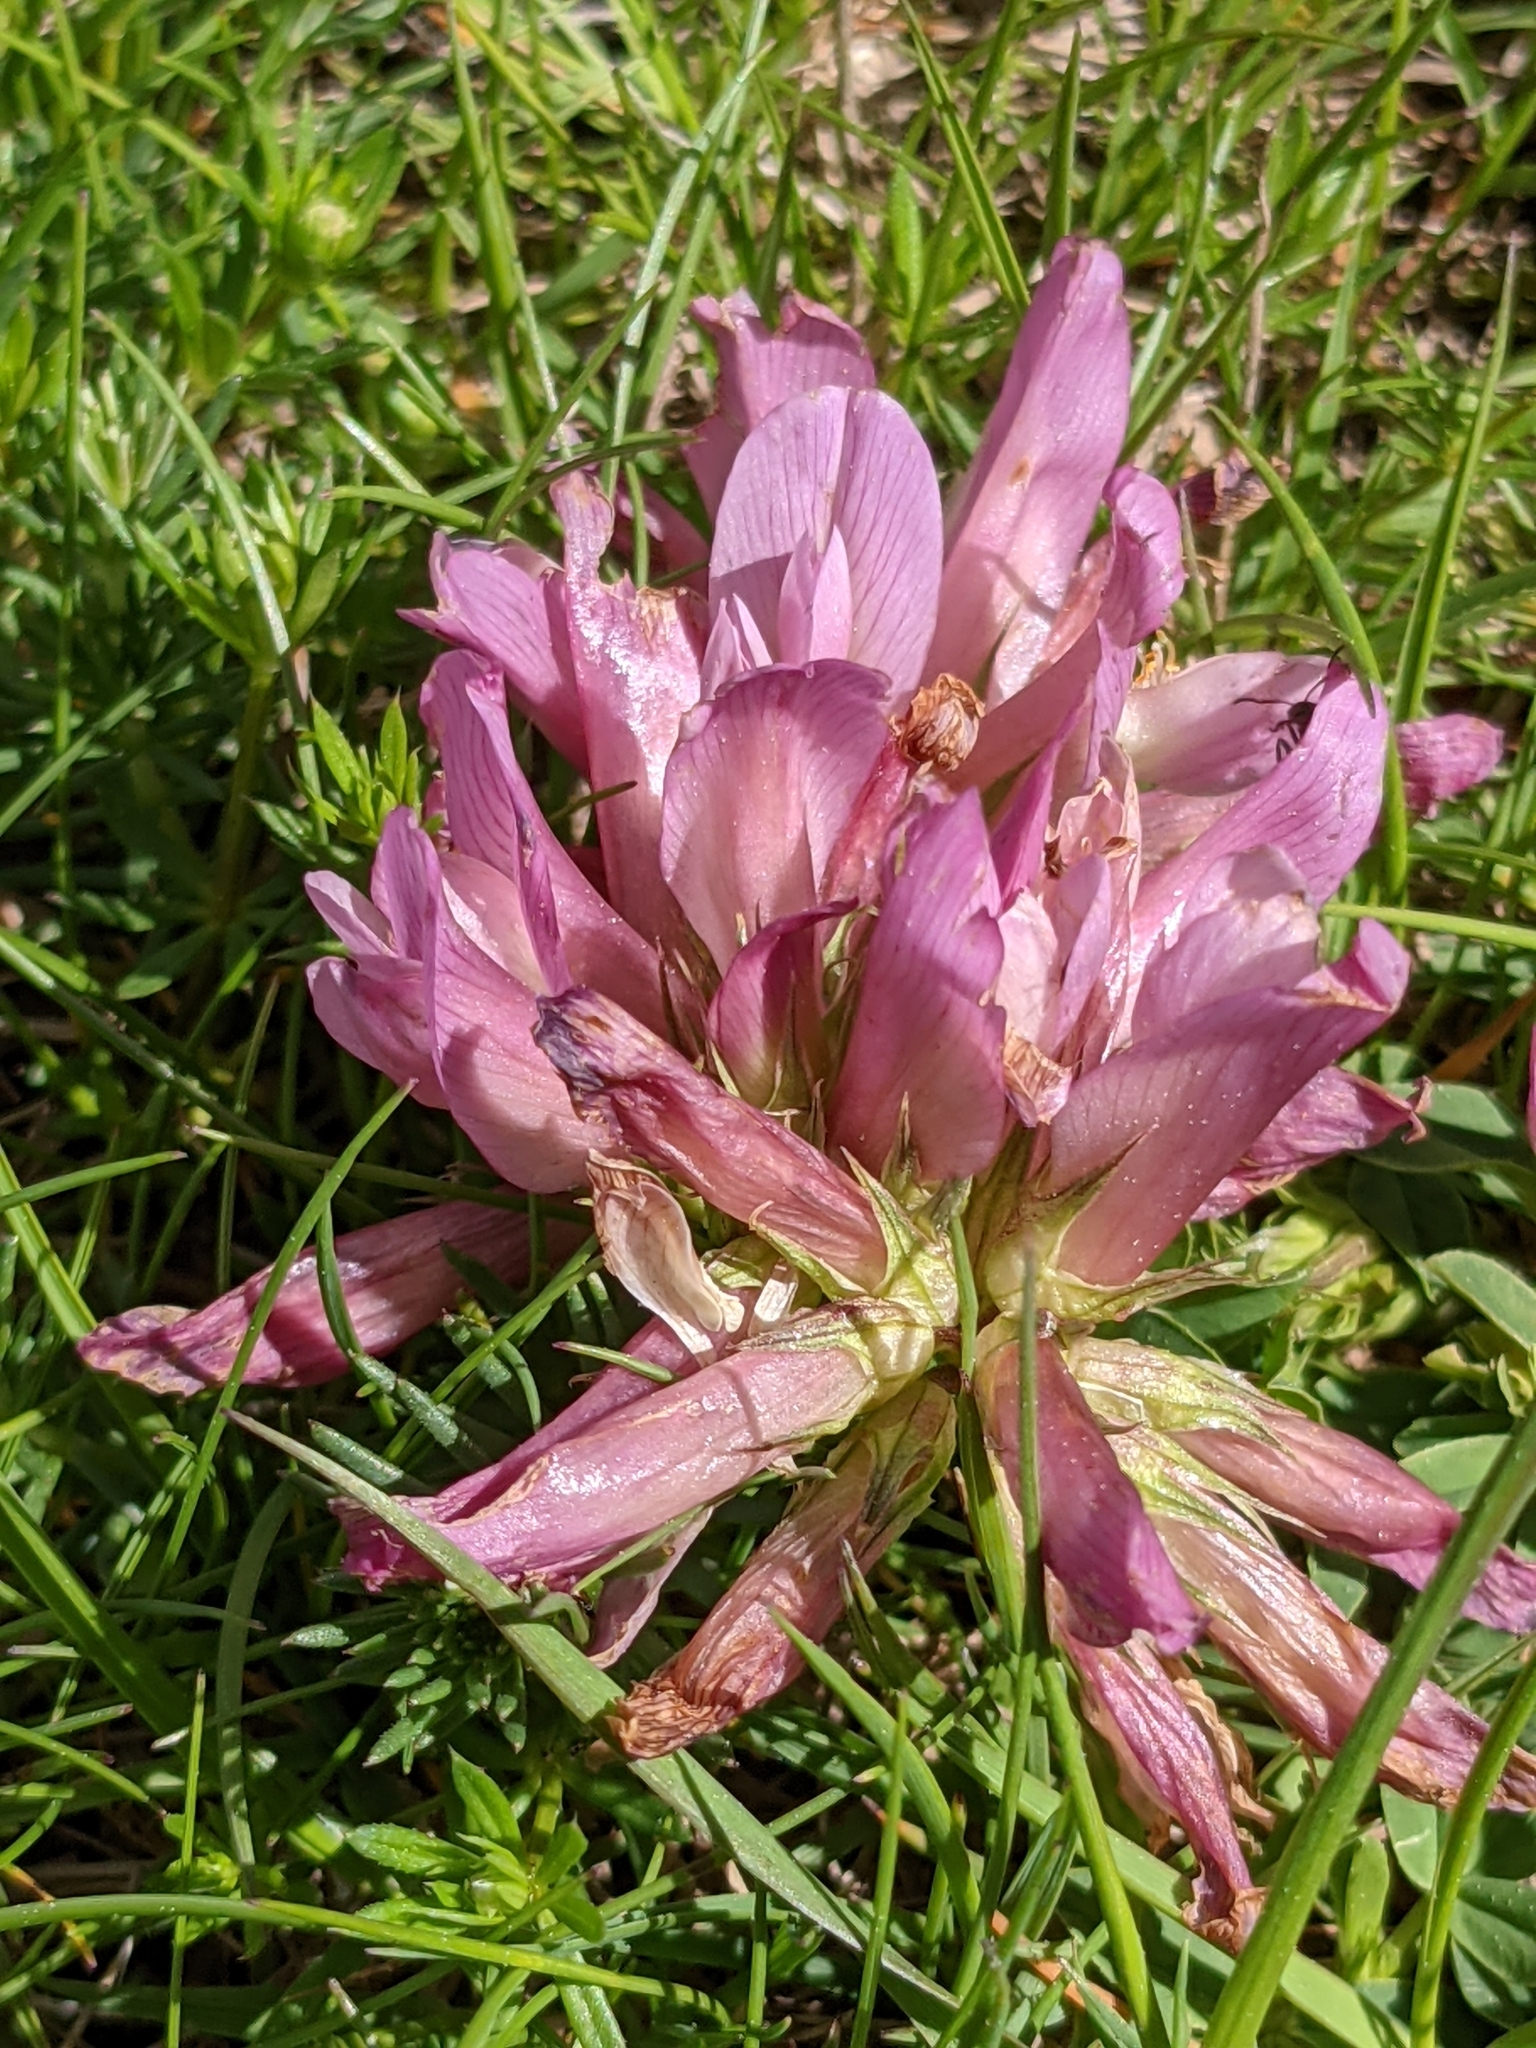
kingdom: Plantae
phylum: Tracheophyta
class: Magnoliopsida
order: Fabales
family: Fabaceae
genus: Trifolium
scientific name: Trifolium alpinum
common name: Alpine clover
